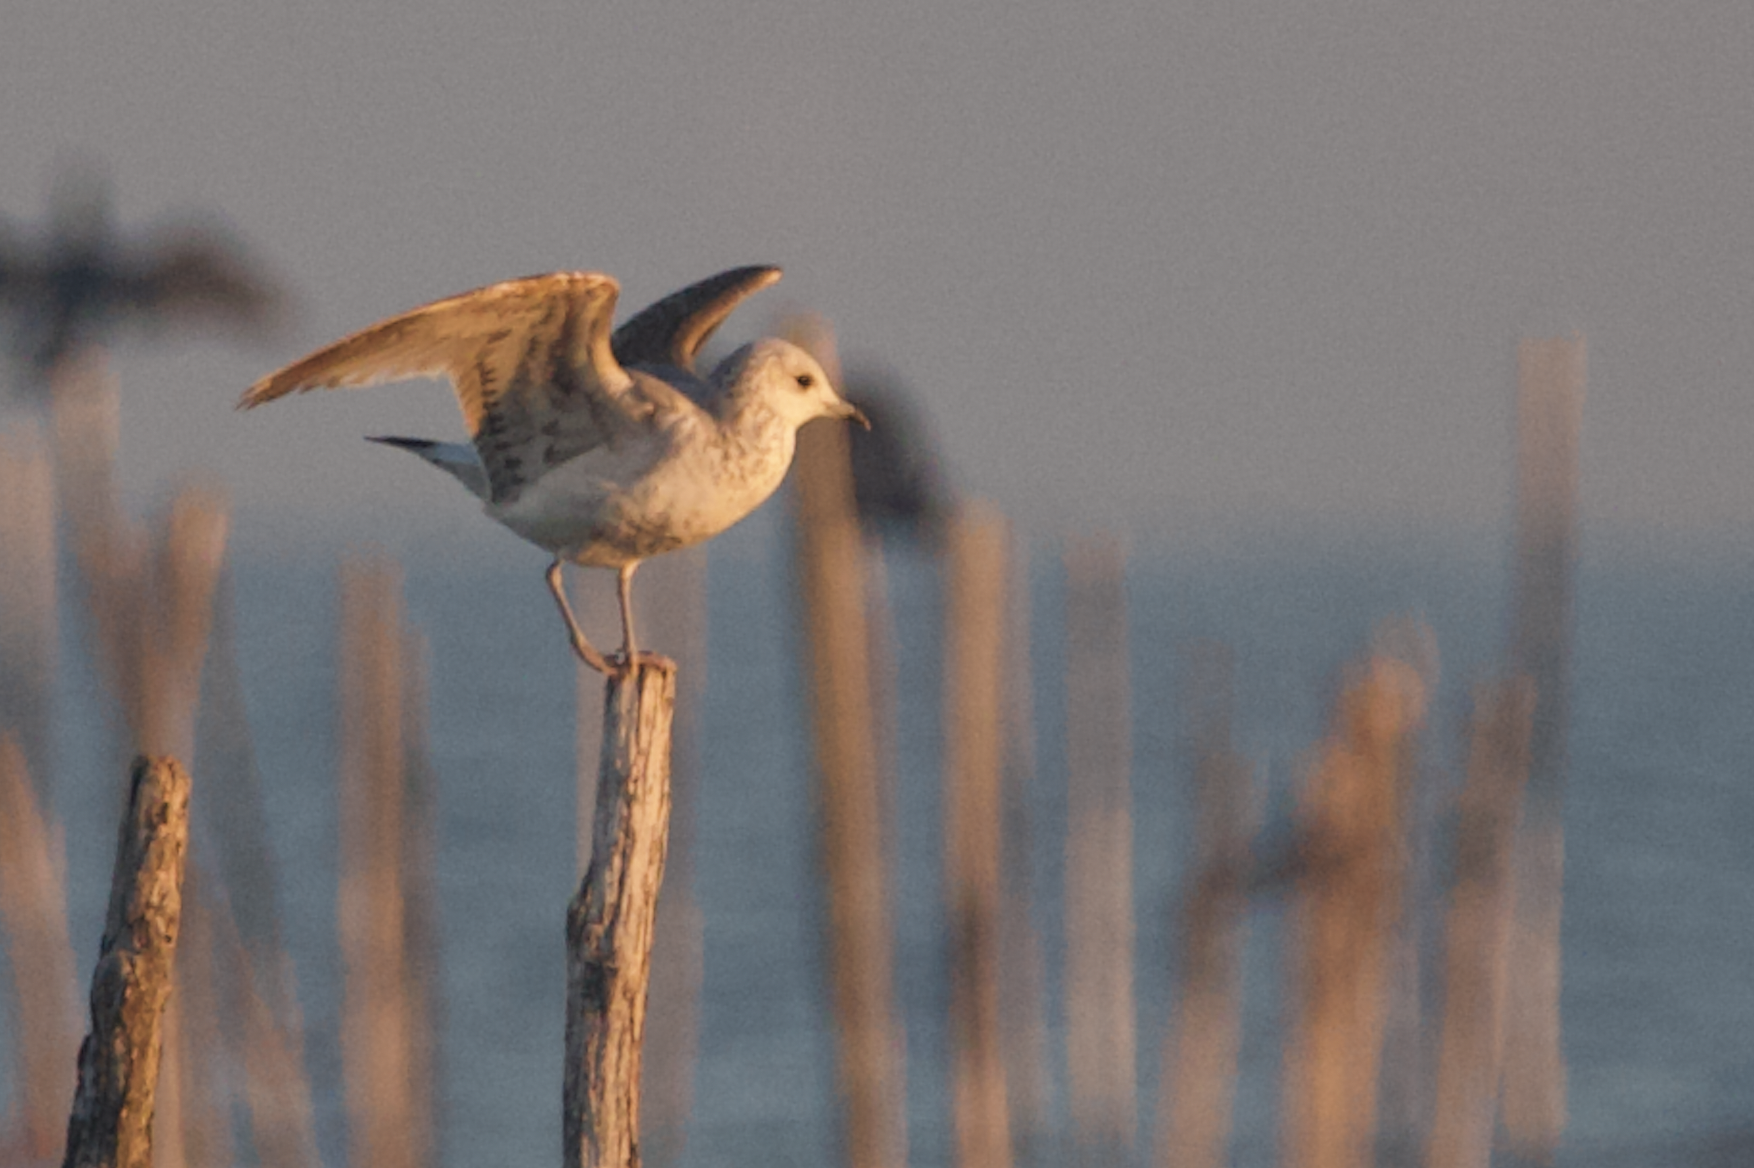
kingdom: Animalia
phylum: Chordata
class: Aves
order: Charadriiformes
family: Laridae
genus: Larus
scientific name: Larus canus
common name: Mew gull
